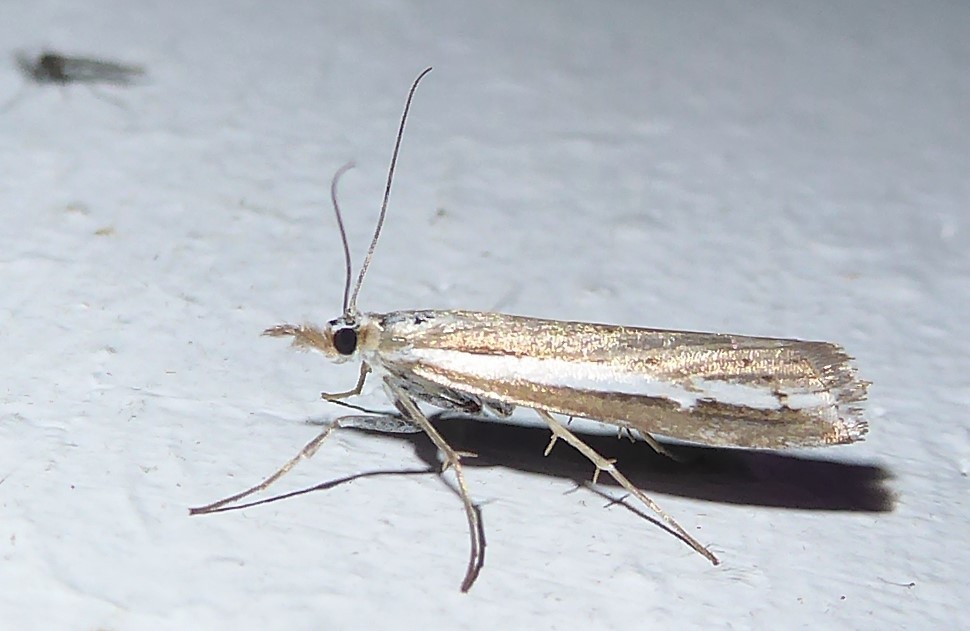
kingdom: Animalia
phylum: Arthropoda
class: Insecta
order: Lepidoptera
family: Crambidae
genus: Orocrambus
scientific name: Orocrambus vittellus
